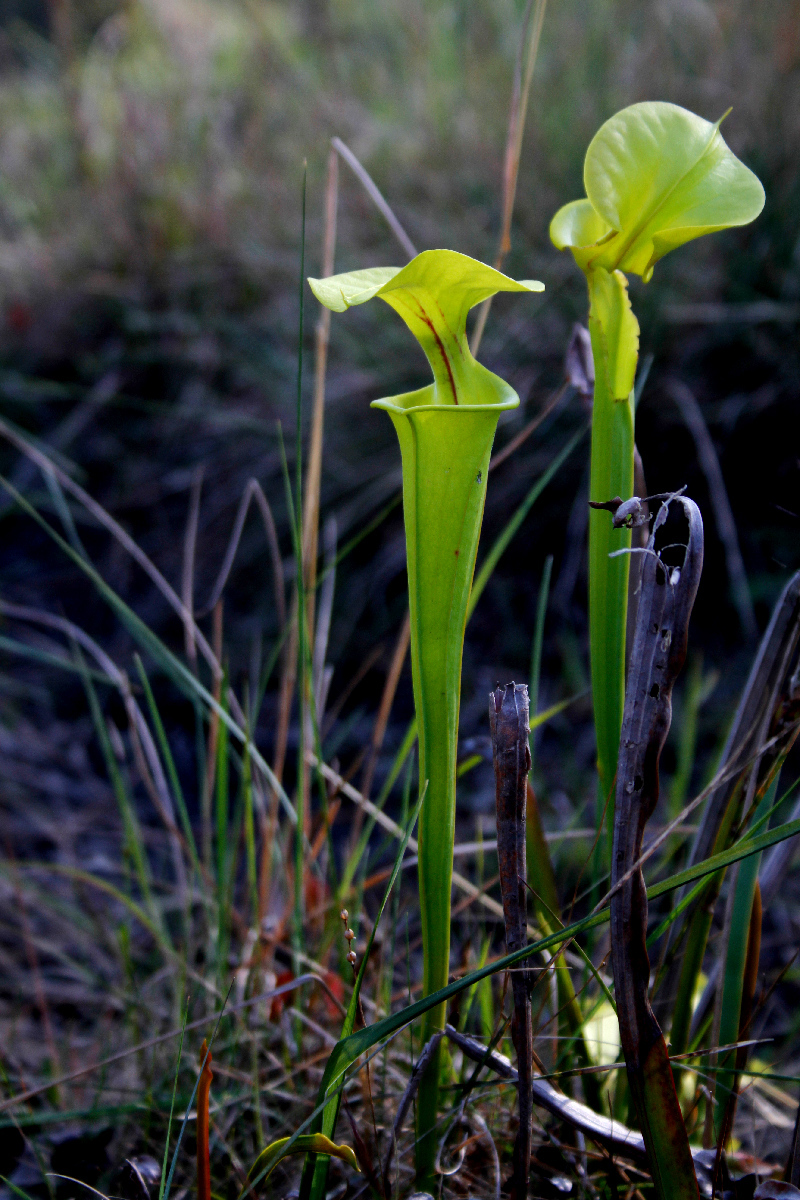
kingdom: Plantae
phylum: Tracheophyta
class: Magnoliopsida
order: Ericales
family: Sarraceniaceae
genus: Sarracenia
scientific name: Sarracenia flava
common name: Trumpets
